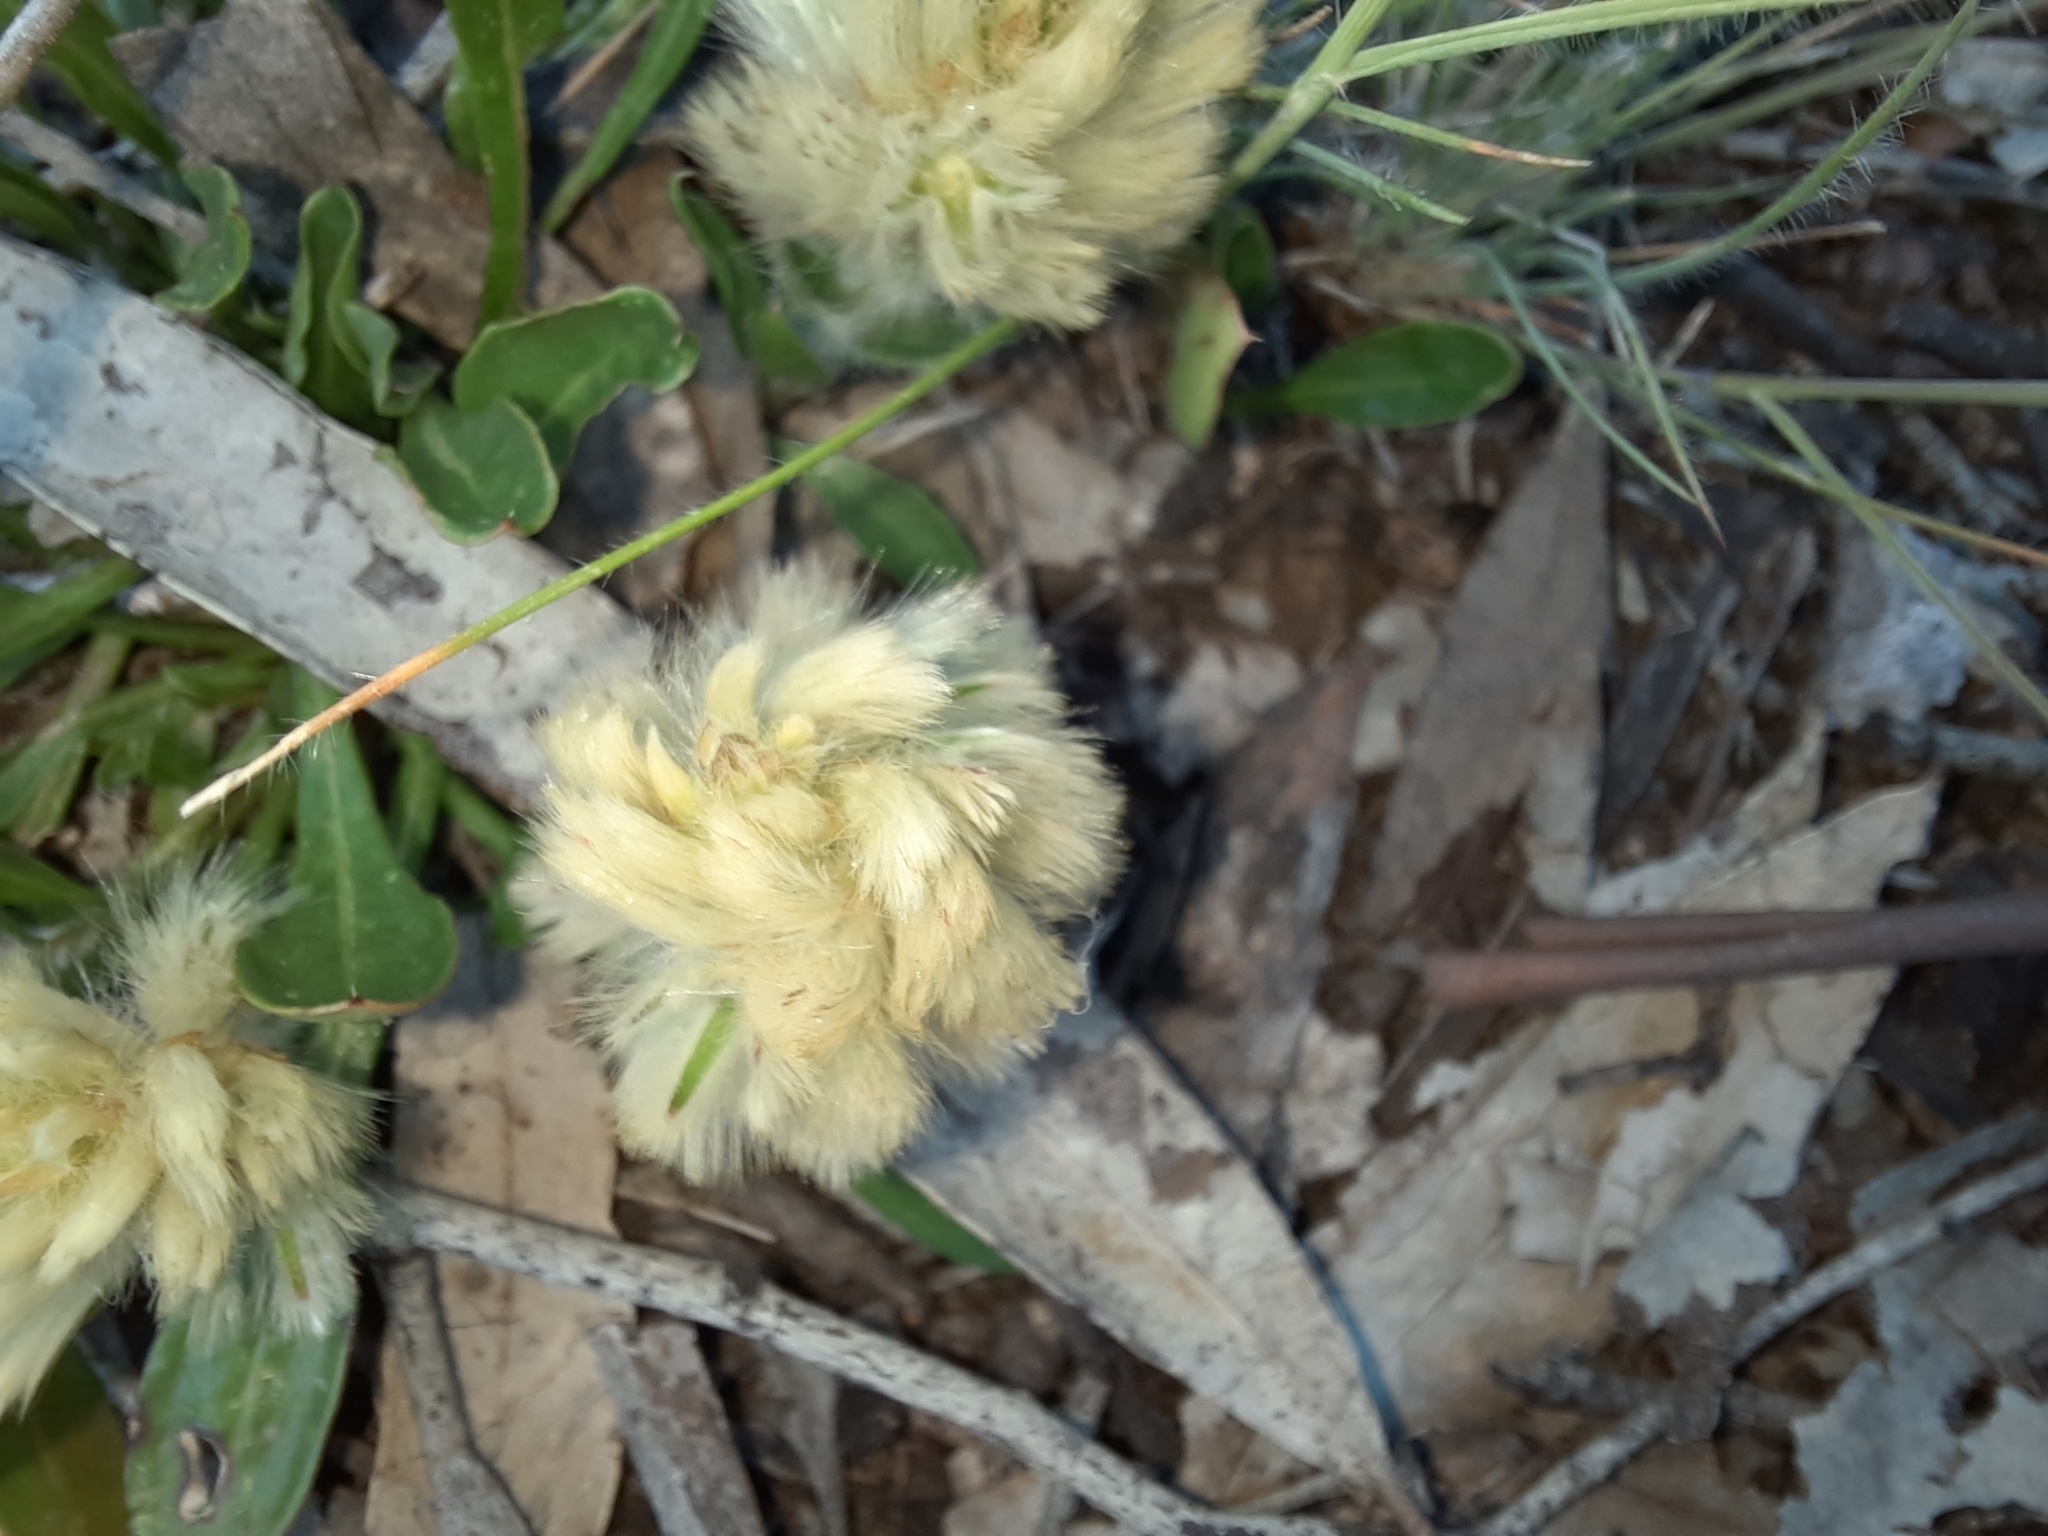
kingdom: Plantae
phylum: Tracheophyta
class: Magnoliopsida
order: Caryophyllales
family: Amaranthaceae
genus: Ptilotus
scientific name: Ptilotus spathulatus
